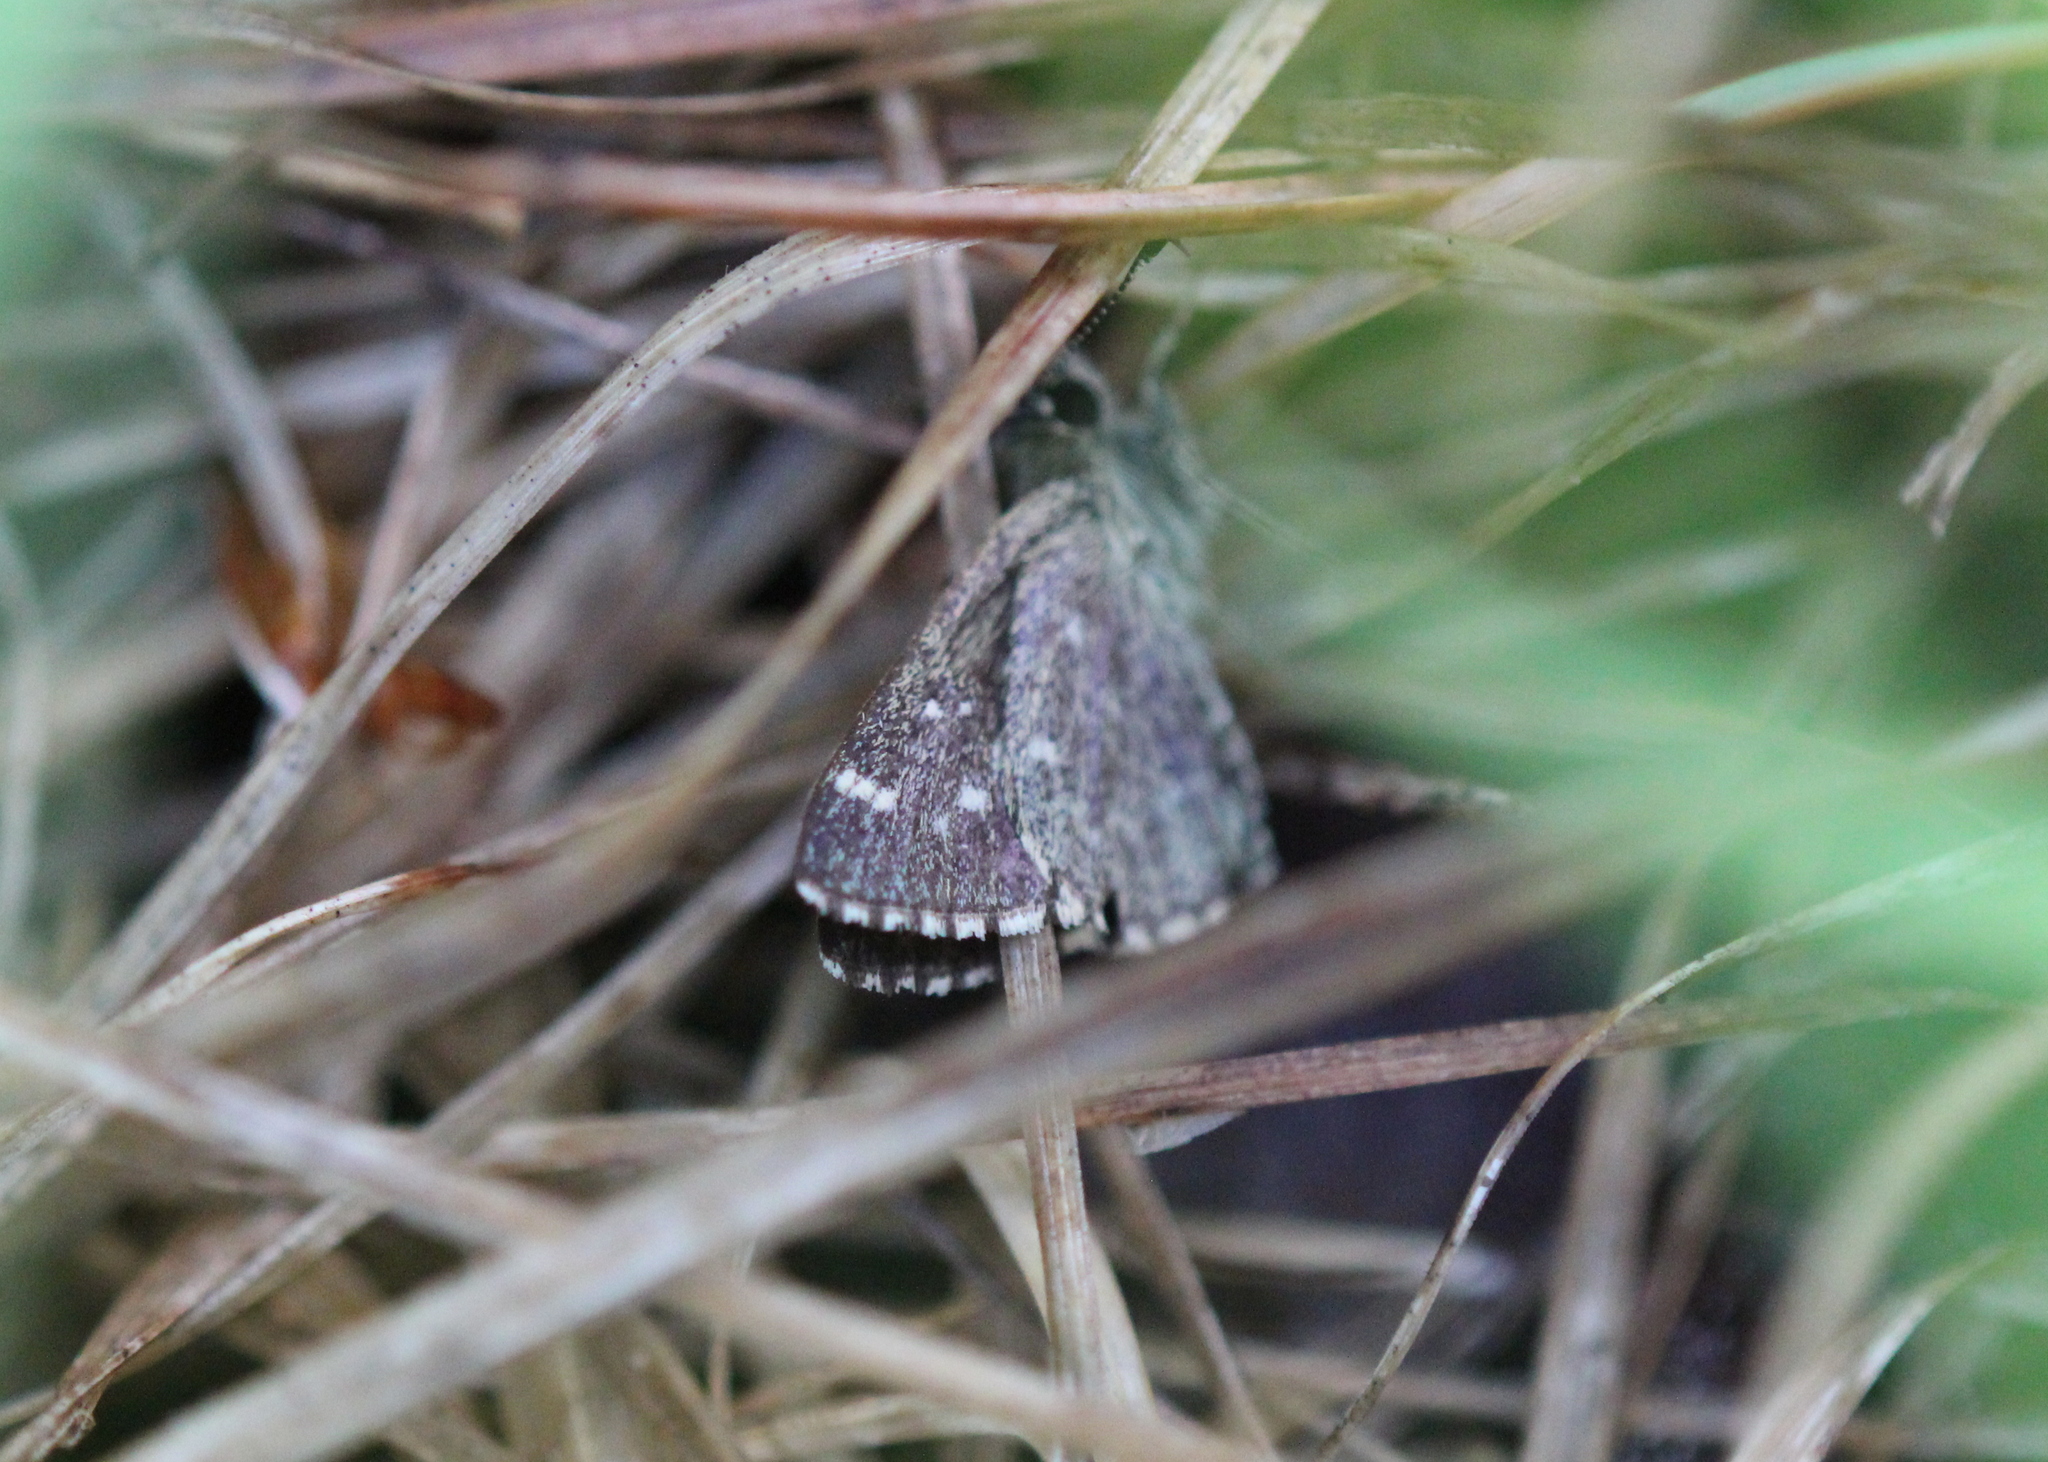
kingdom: Animalia
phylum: Arthropoda
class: Insecta
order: Lepidoptera
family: Hesperiidae
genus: Mastor
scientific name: Mastor hegon
